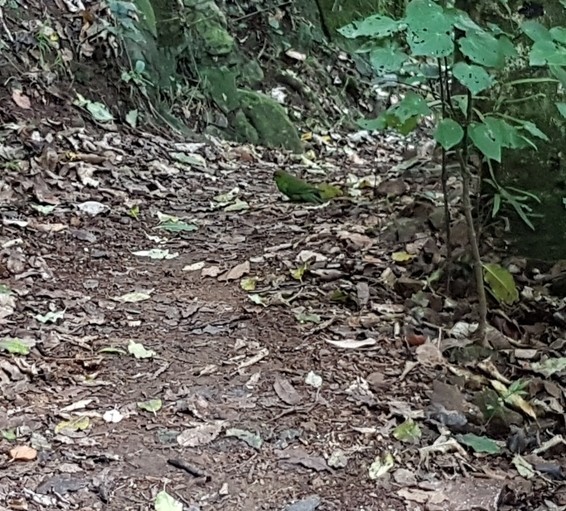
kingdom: Animalia
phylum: Chordata
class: Aves
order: Psittaciformes
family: Psittacidae
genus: Cyanoramphus
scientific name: Cyanoramphus novaezelandiae
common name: Red-fronted parakeet
